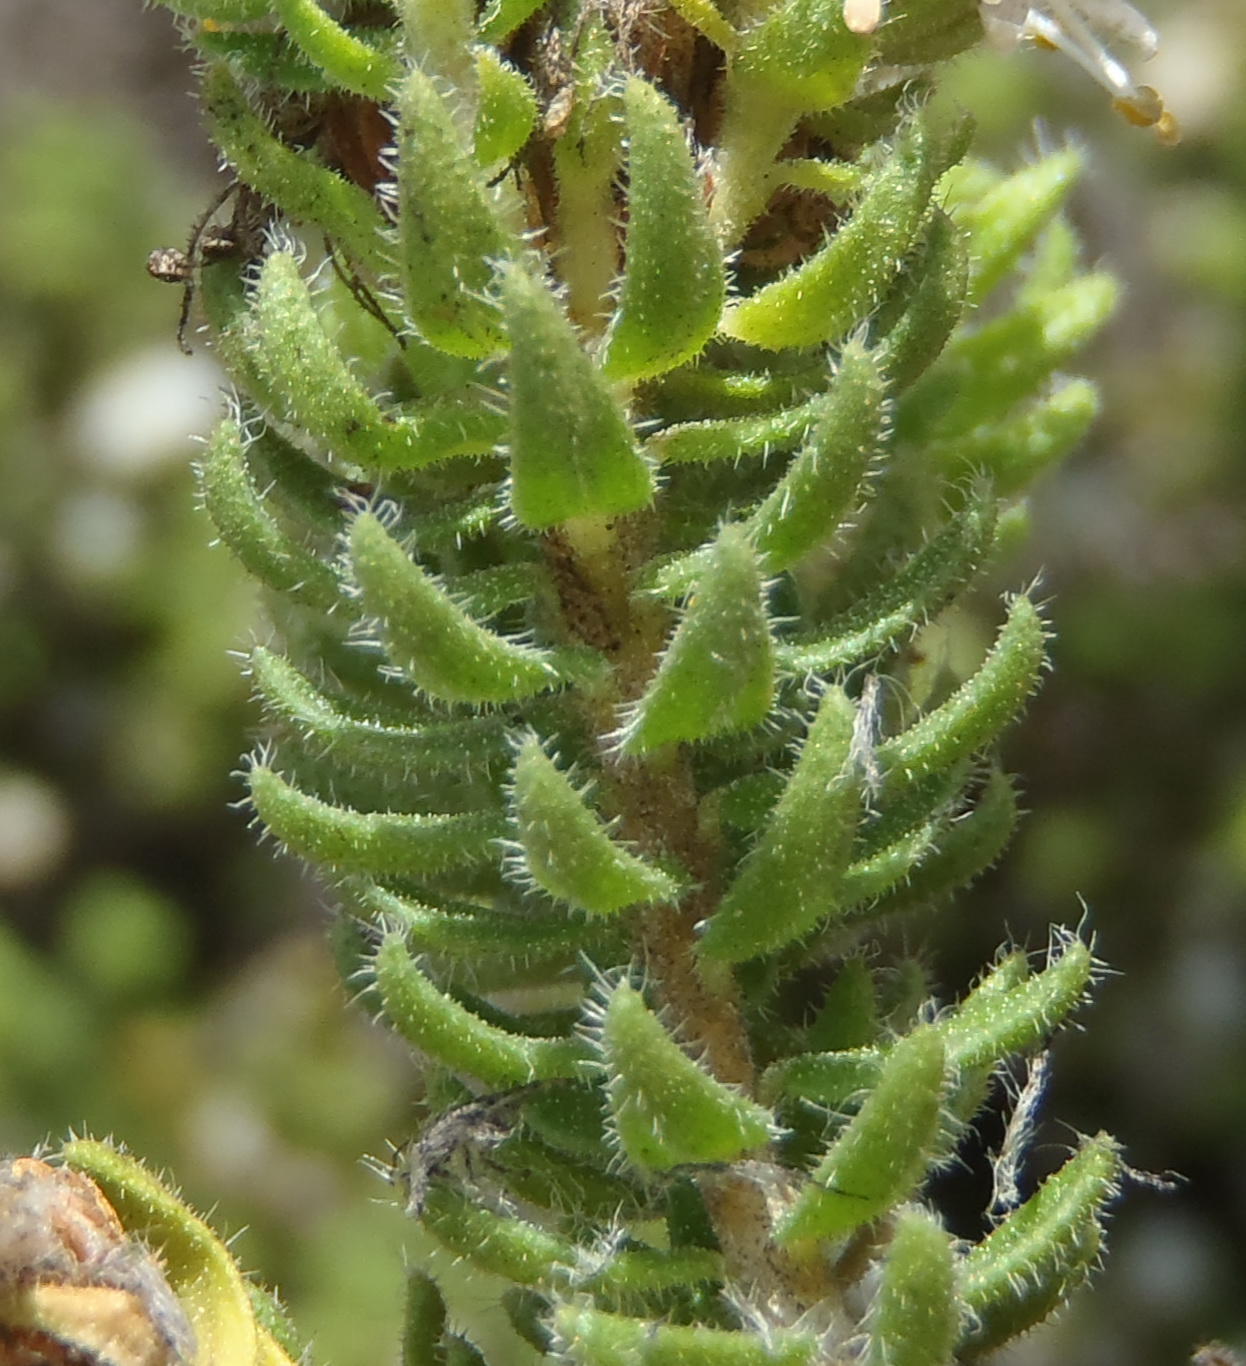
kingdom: Plantae
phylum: Tracheophyta
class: Magnoliopsida
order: Sapindales
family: Rutaceae
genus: Agathosma
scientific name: Agathosma
